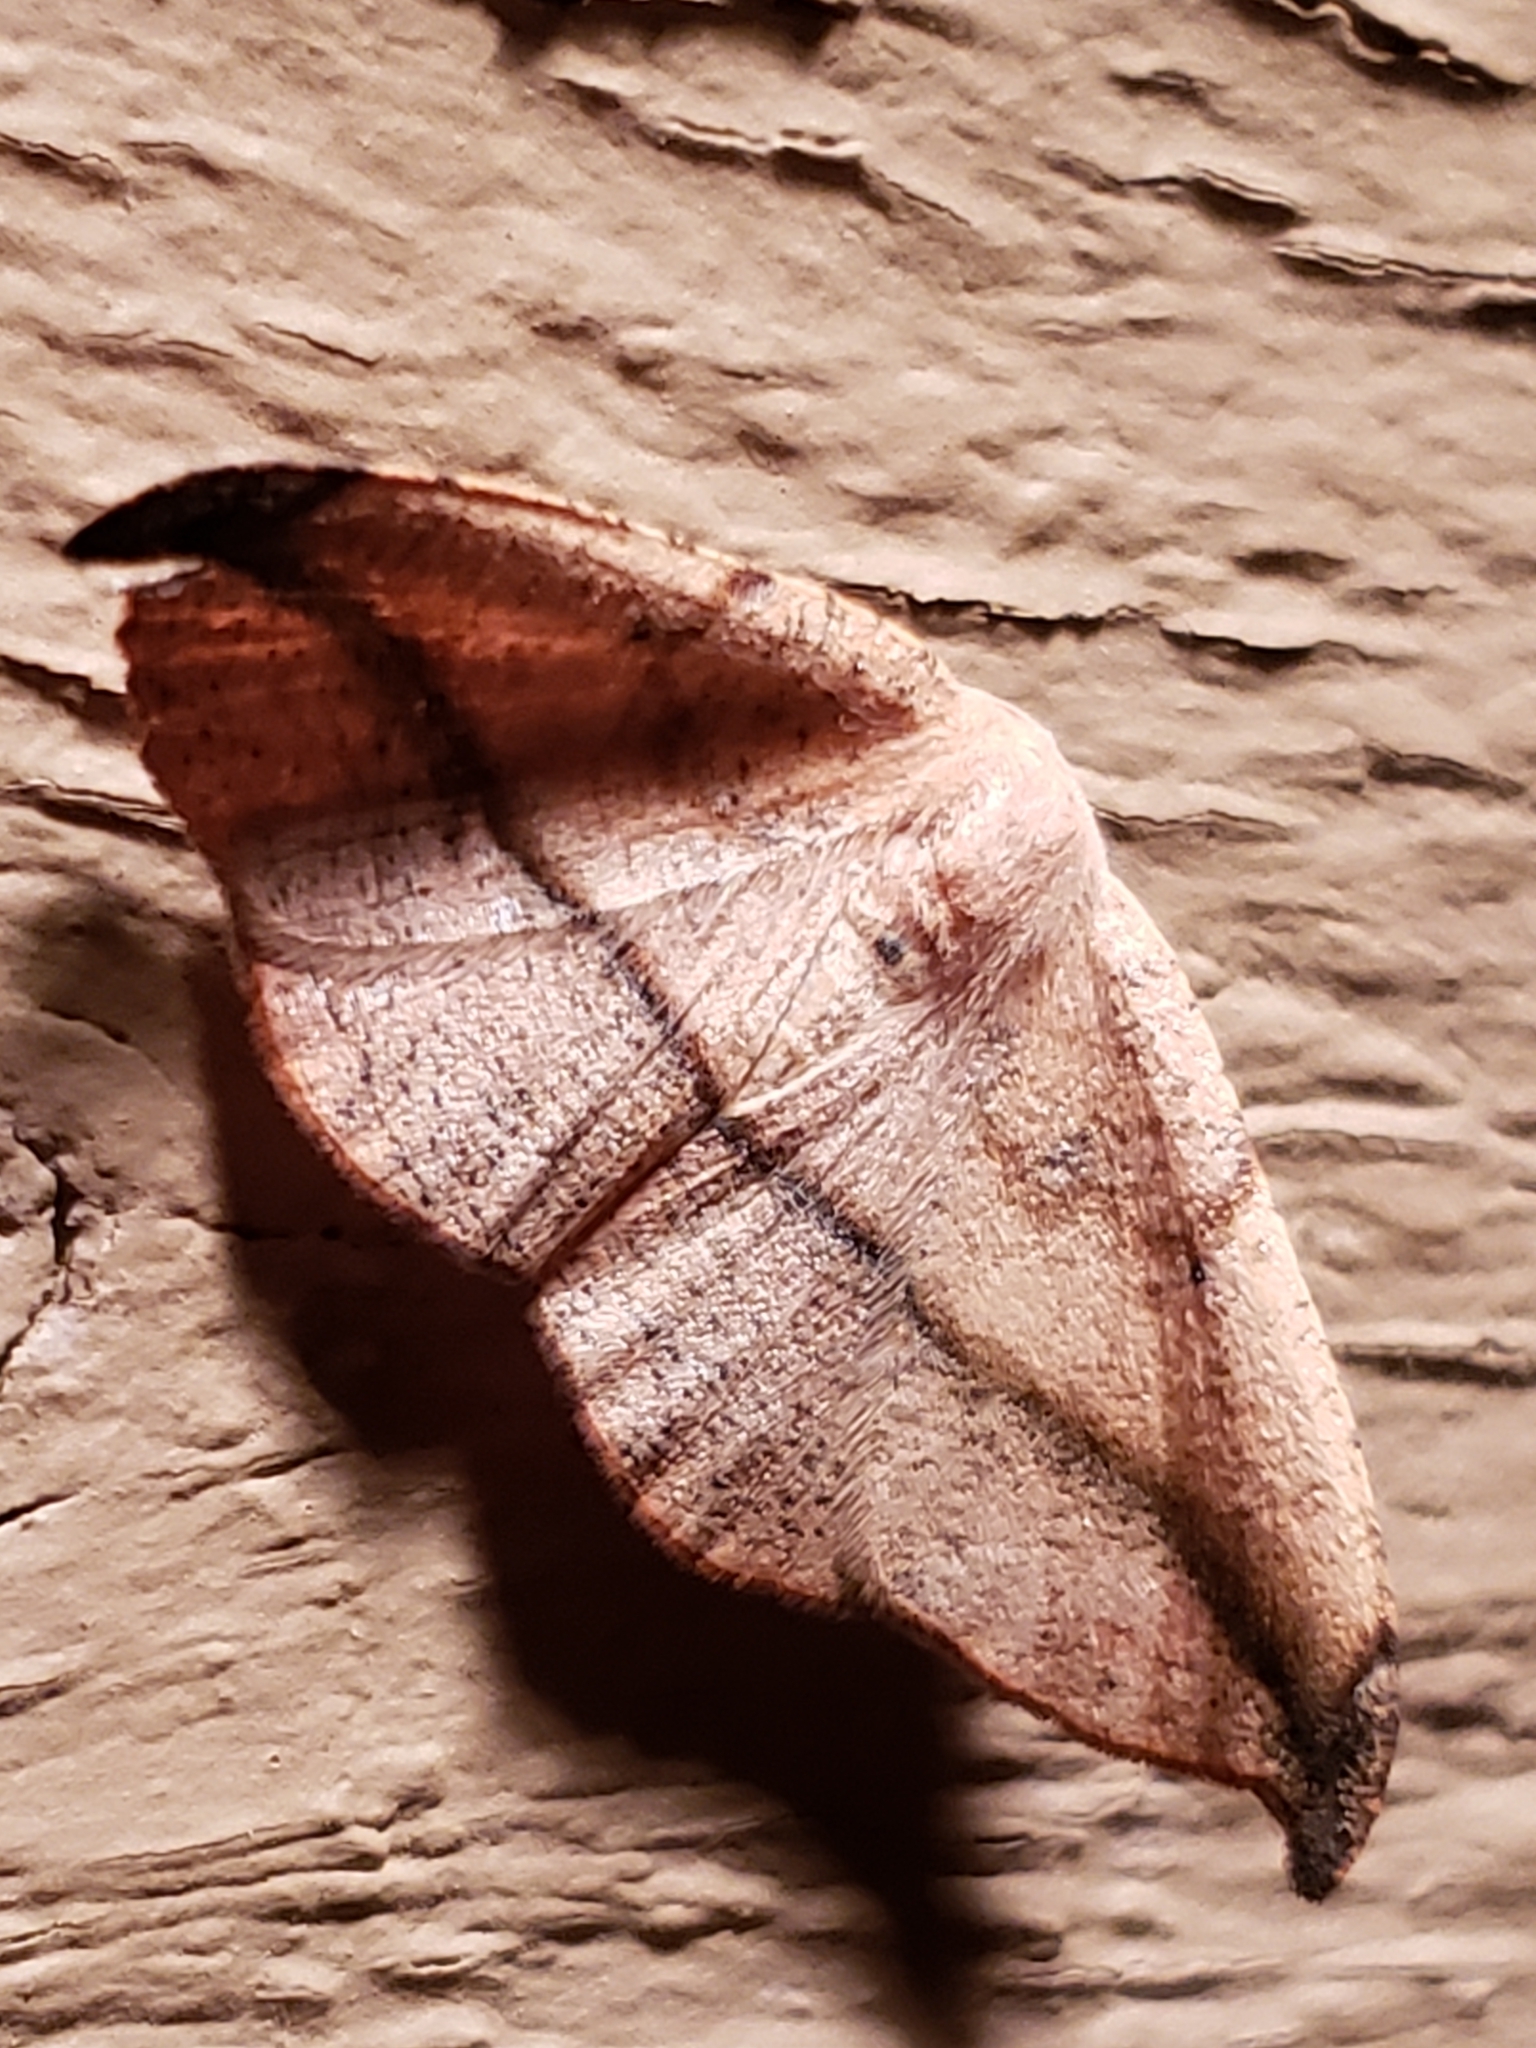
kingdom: Animalia
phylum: Arthropoda
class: Insecta
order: Lepidoptera
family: Geometridae
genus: Patalene
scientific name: Patalene olyzonaria
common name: Juniper geometer moth
